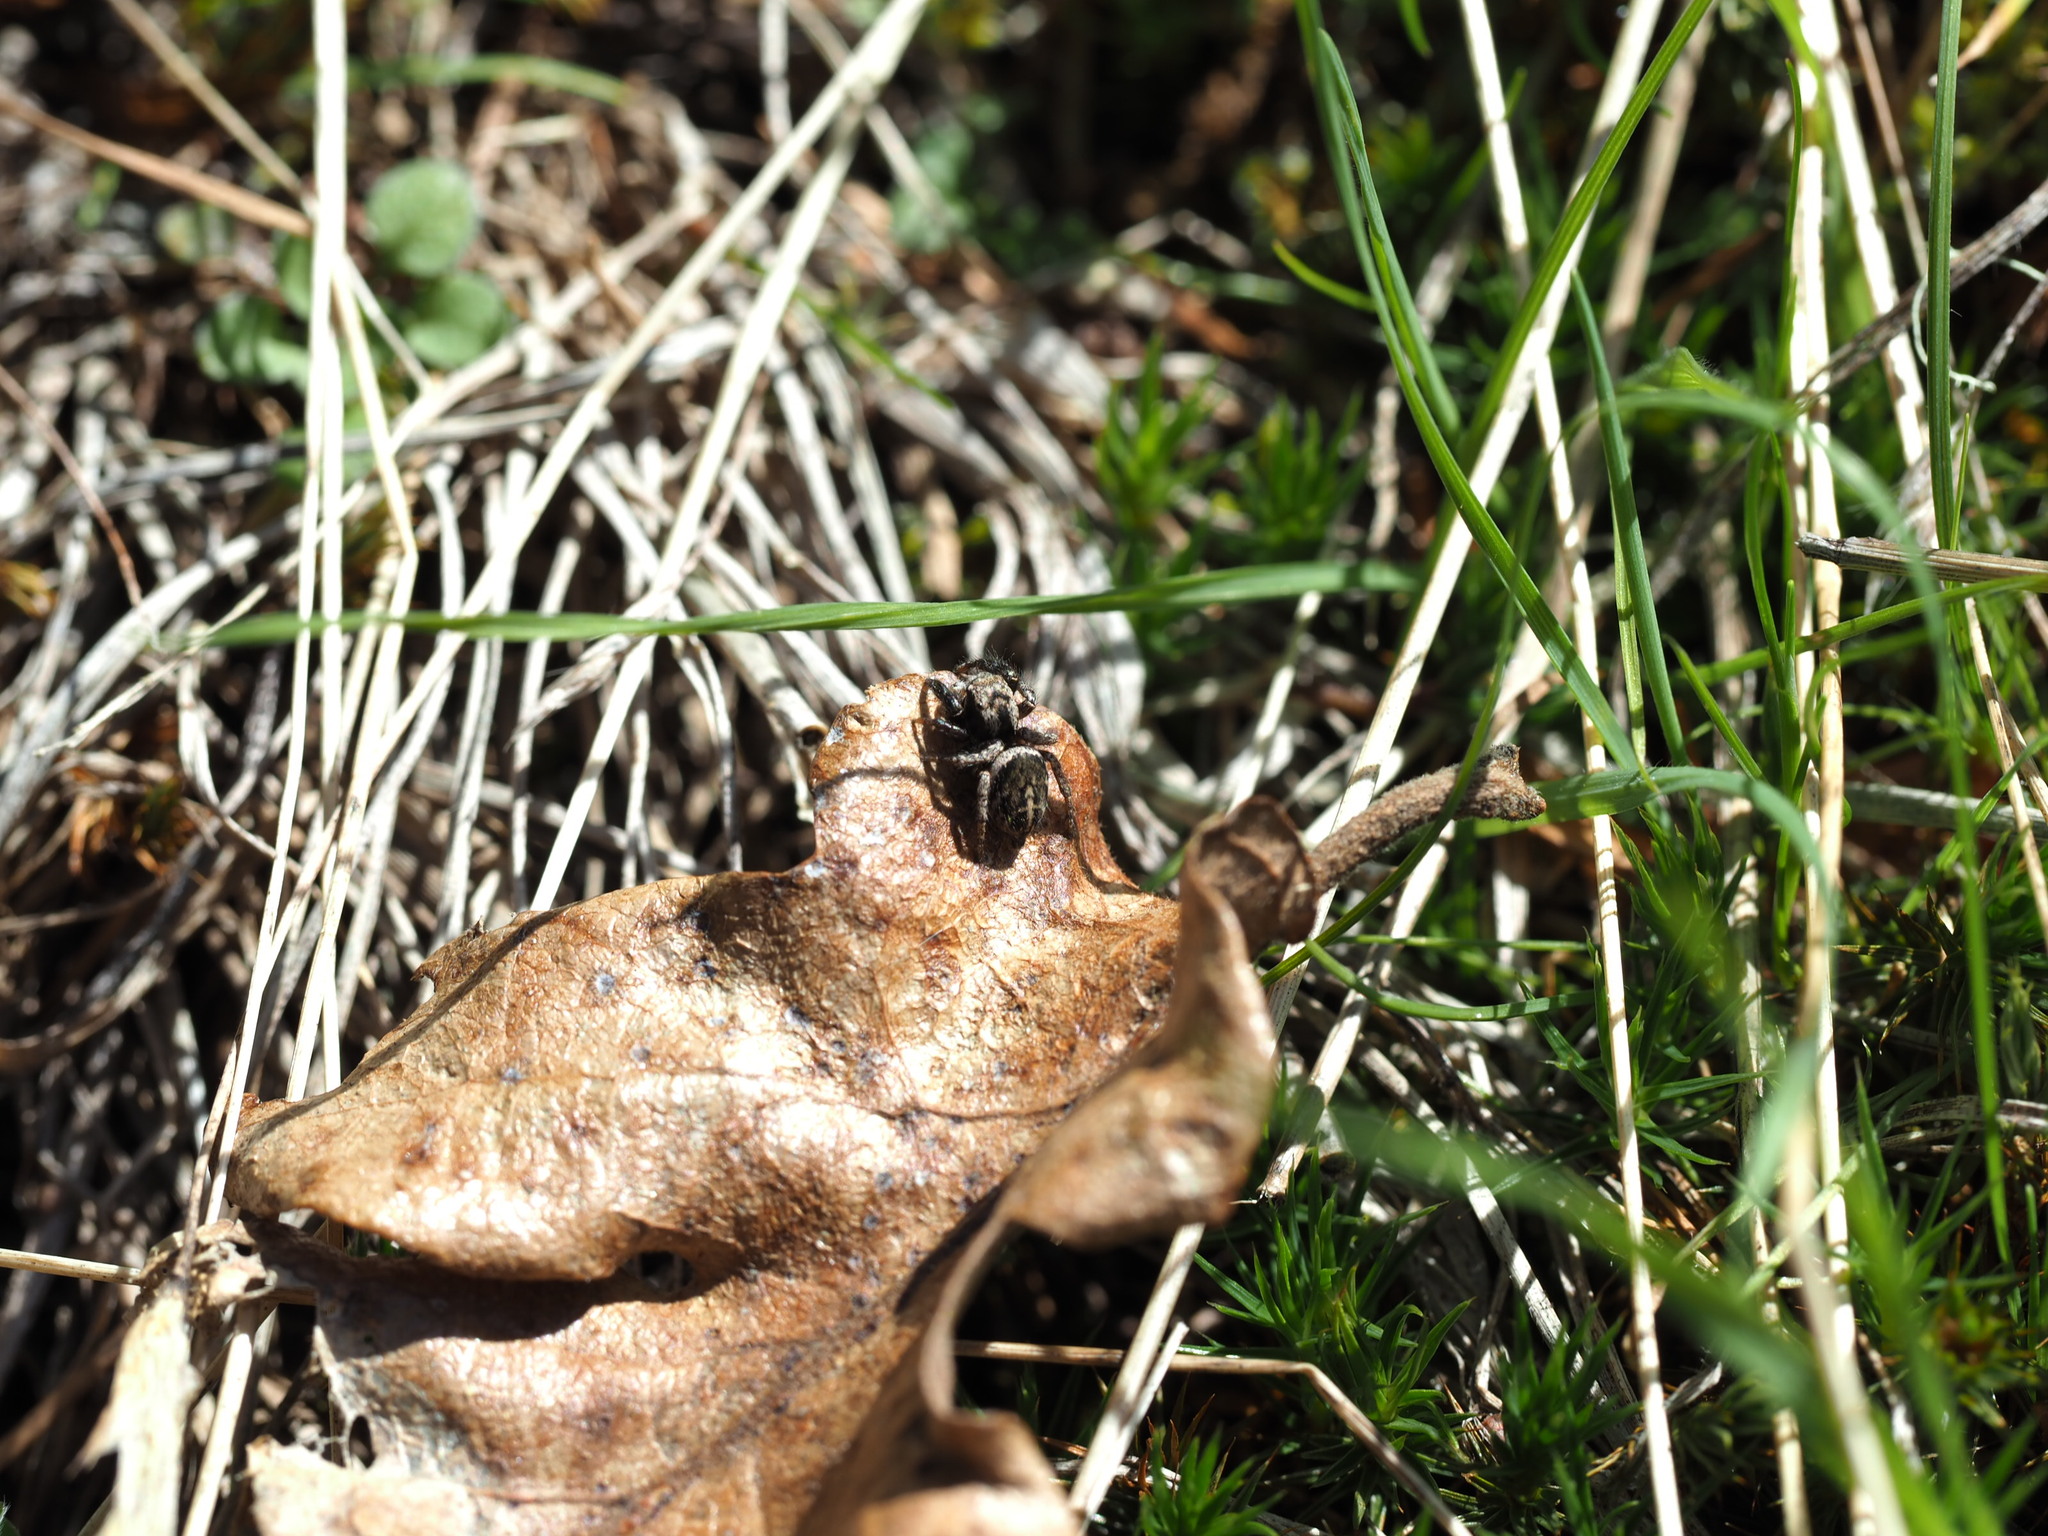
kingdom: Animalia
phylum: Arthropoda
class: Arachnida
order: Araneae
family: Salticidae
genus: Habronattus
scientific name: Habronattus oregonensis
